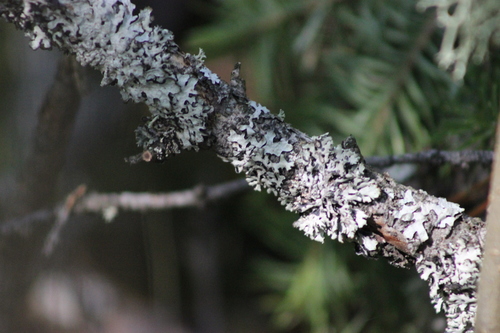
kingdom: Fungi
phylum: Ascomycota
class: Lecanoromycetes
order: Lecanorales
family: Parmeliaceae
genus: Hypogymnia
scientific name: Hypogymnia physodes
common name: Dark crottle
